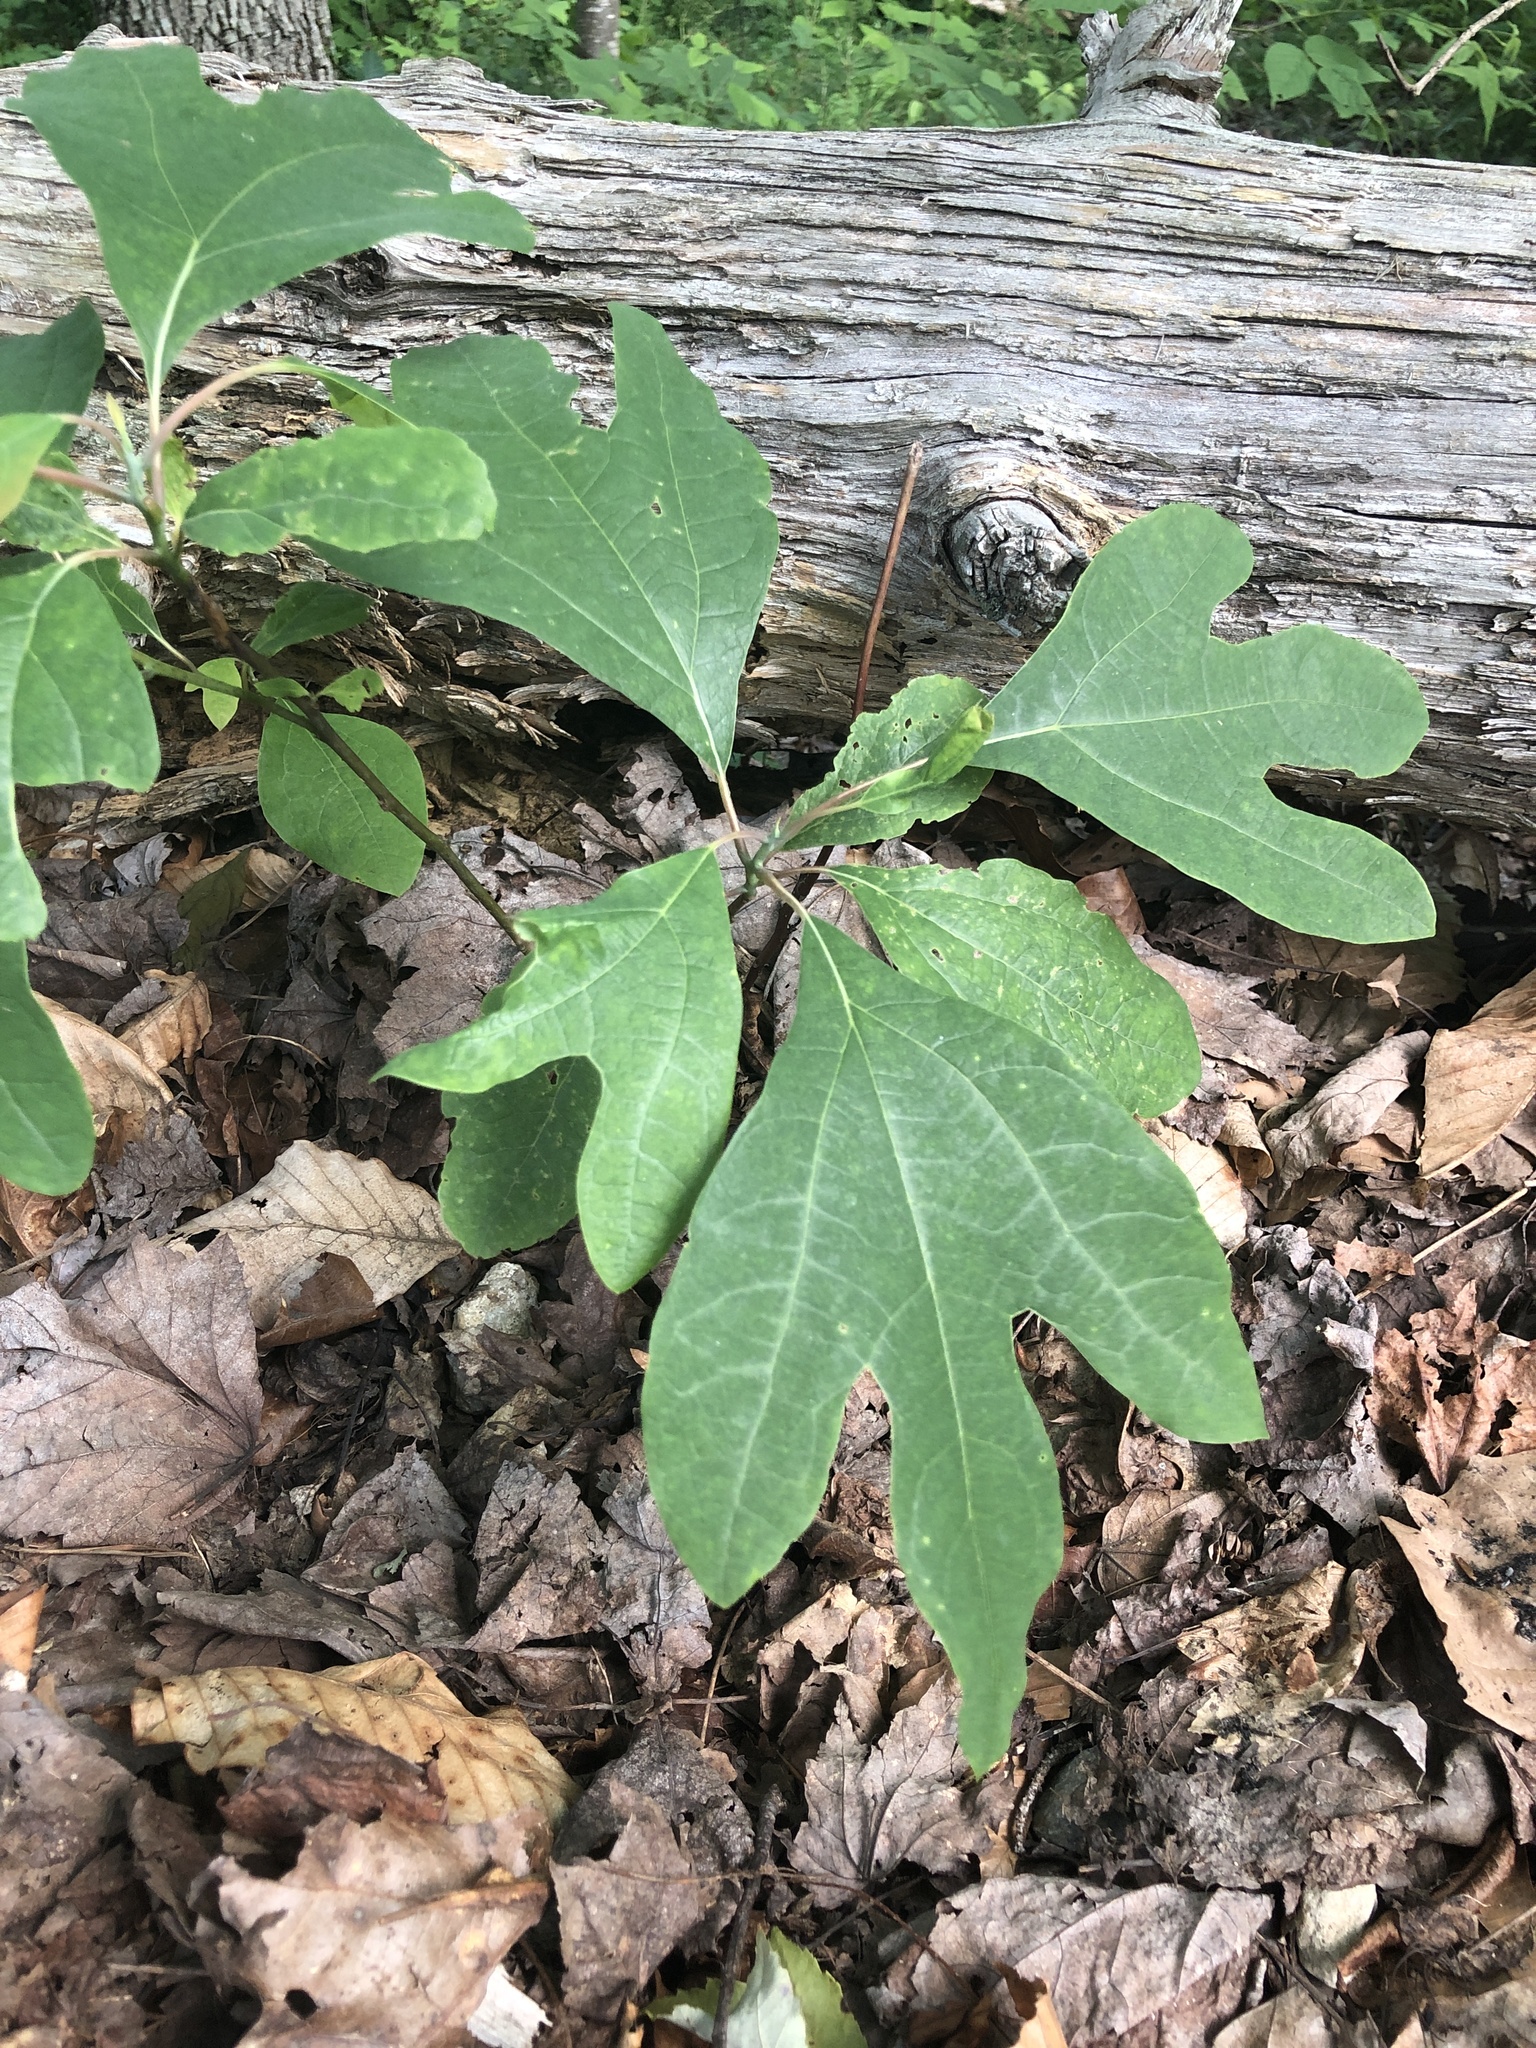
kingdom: Plantae
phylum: Tracheophyta
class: Magnoliopsida
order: Laurales
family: Lauraceae
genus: Sassafras
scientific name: Sassafras albidum
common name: Sassafras
